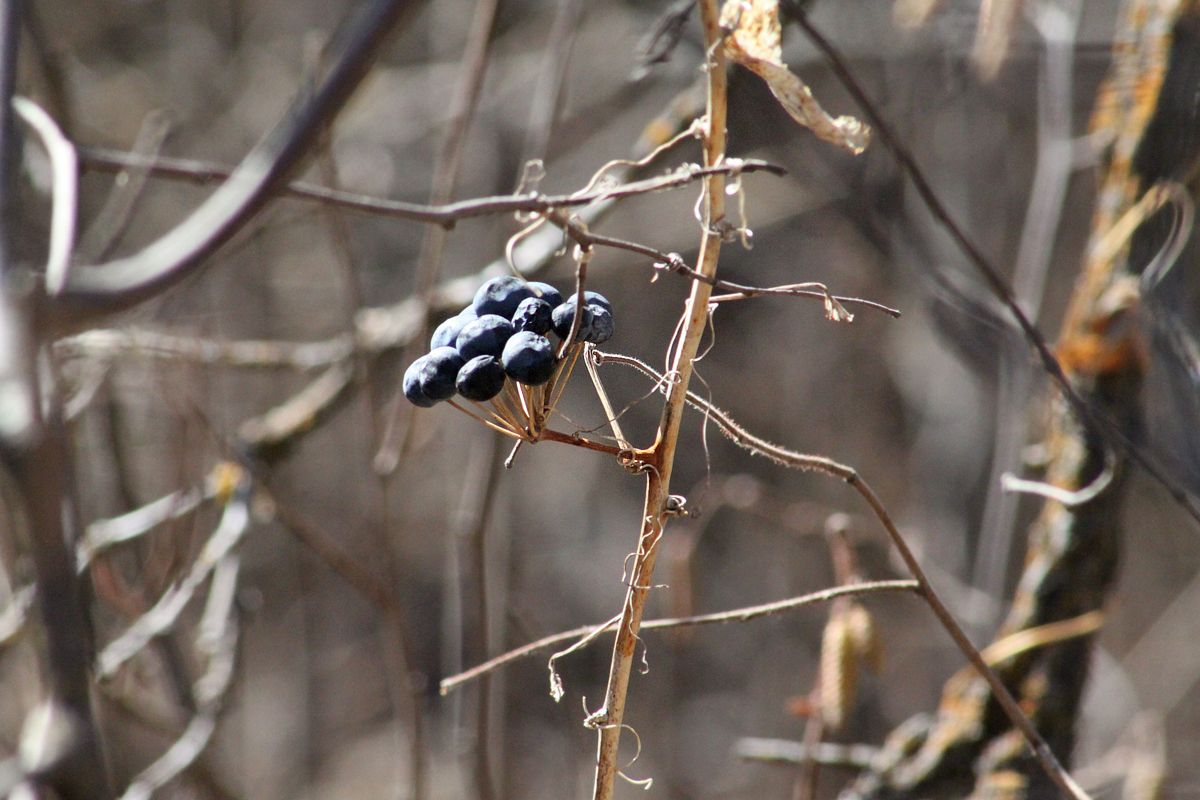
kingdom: Plantae
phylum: Tracheophyta
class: Liliopsida
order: Liliales
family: Smilacaceae
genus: Smilax
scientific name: Smilax lasioneura
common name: Blue ridge carrionflower
